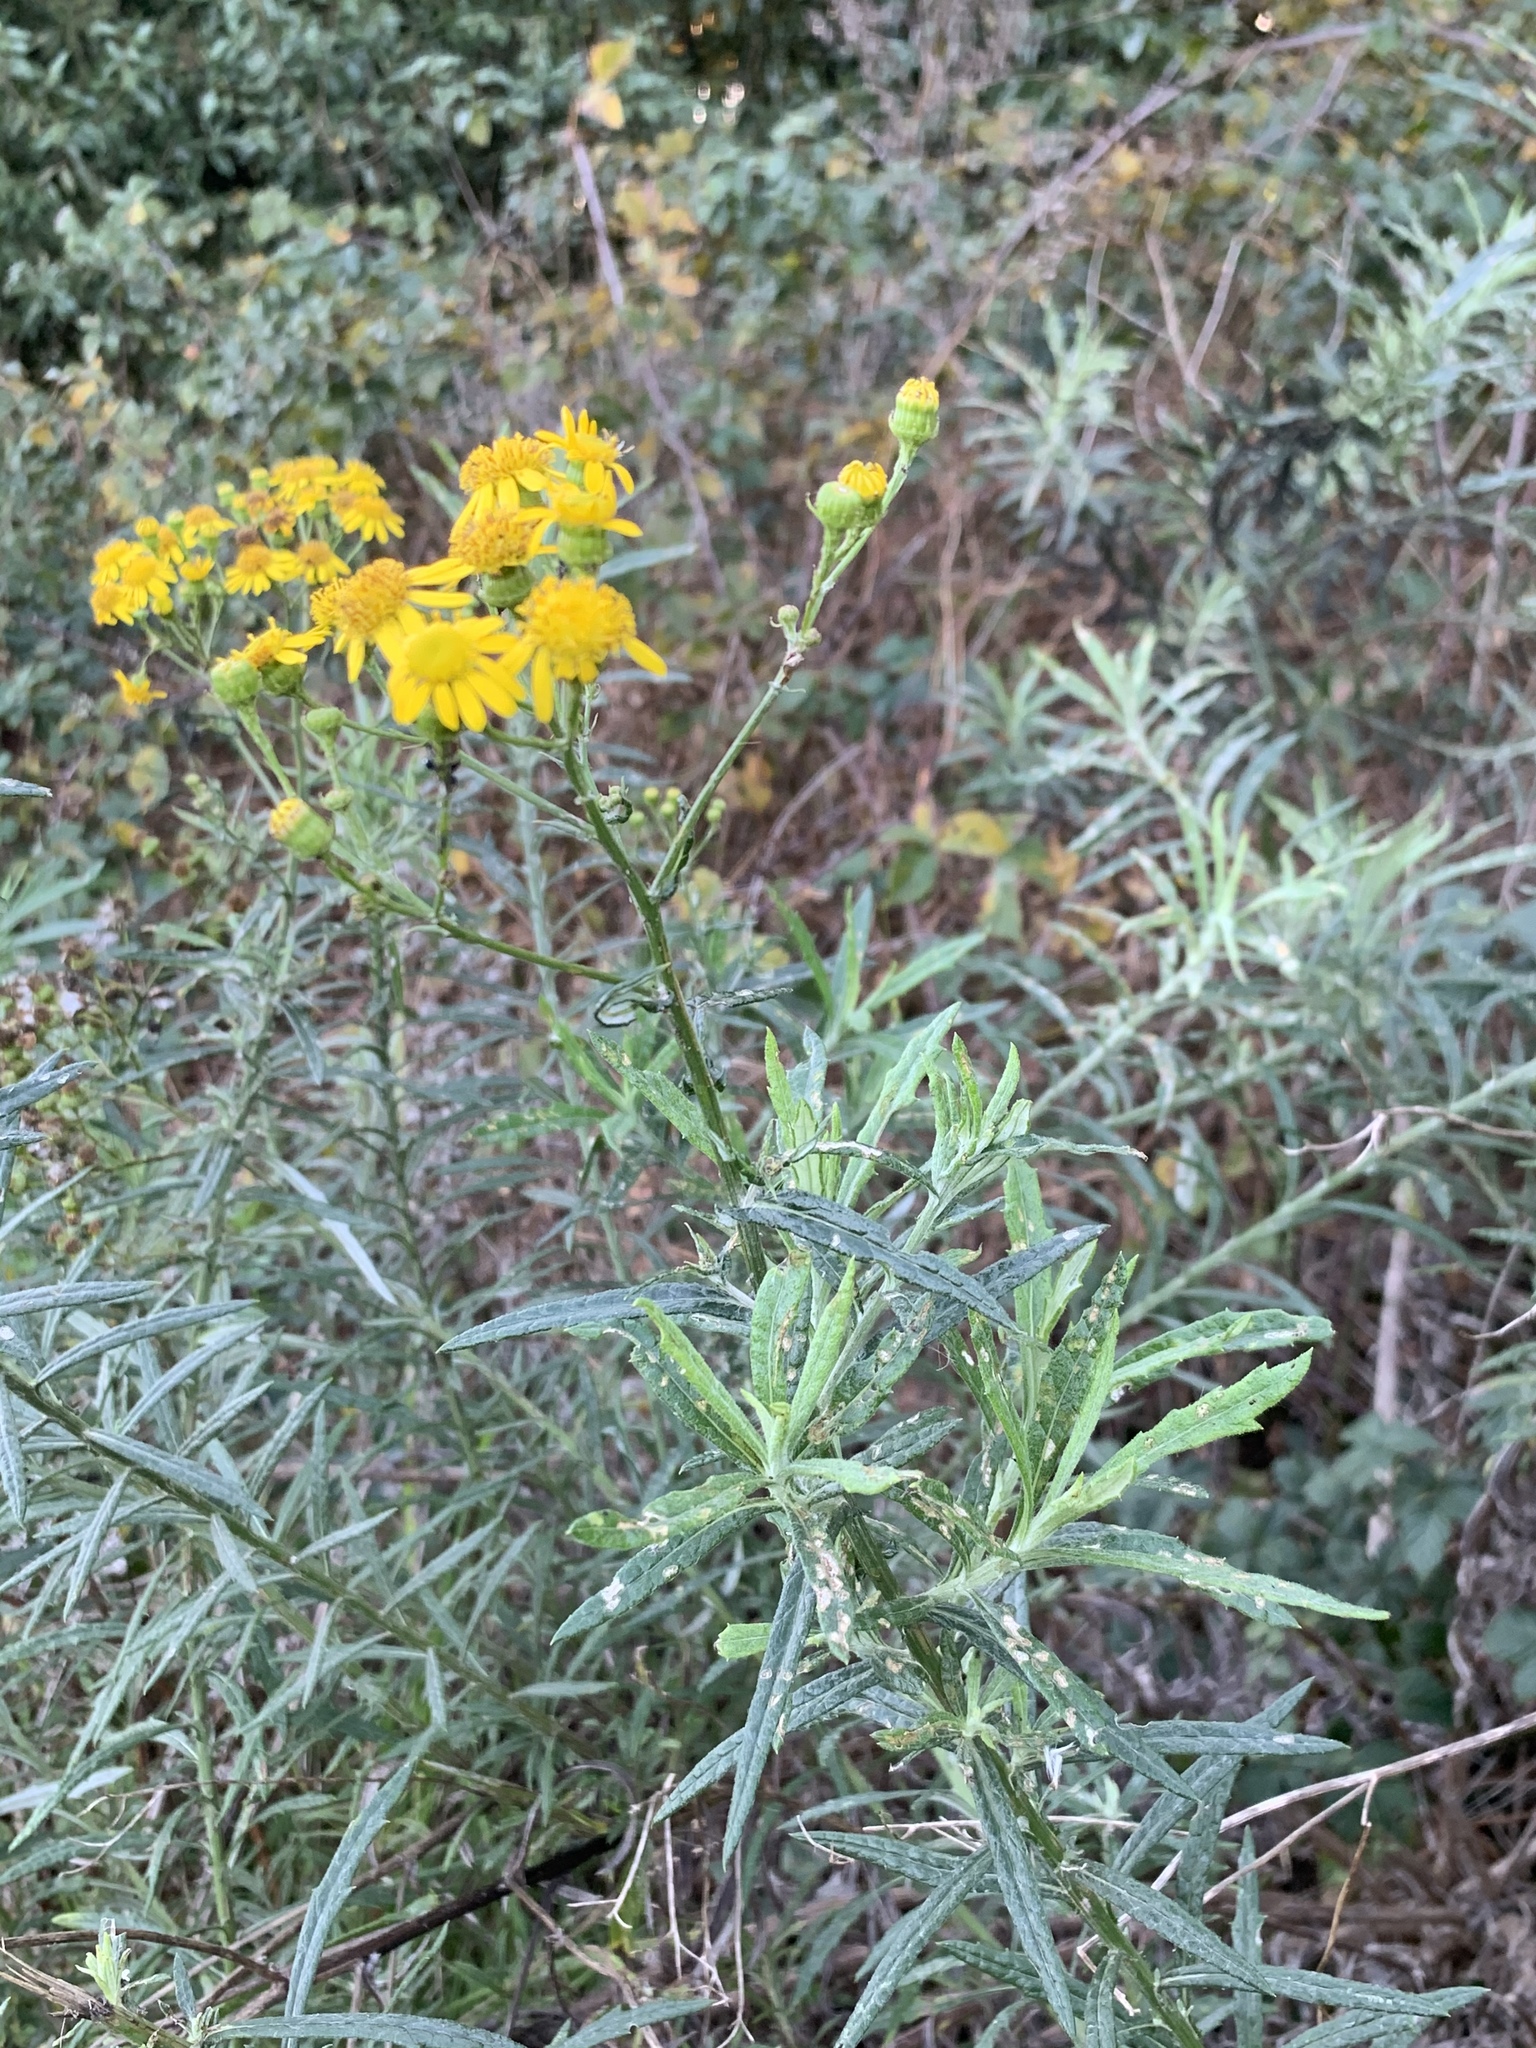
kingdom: Plantae
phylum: Tracheophyta
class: Magnoliopsida
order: Asterales
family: Asteraceae
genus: Senecio
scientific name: Senecio pterophorus
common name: Shoddy ragwort
